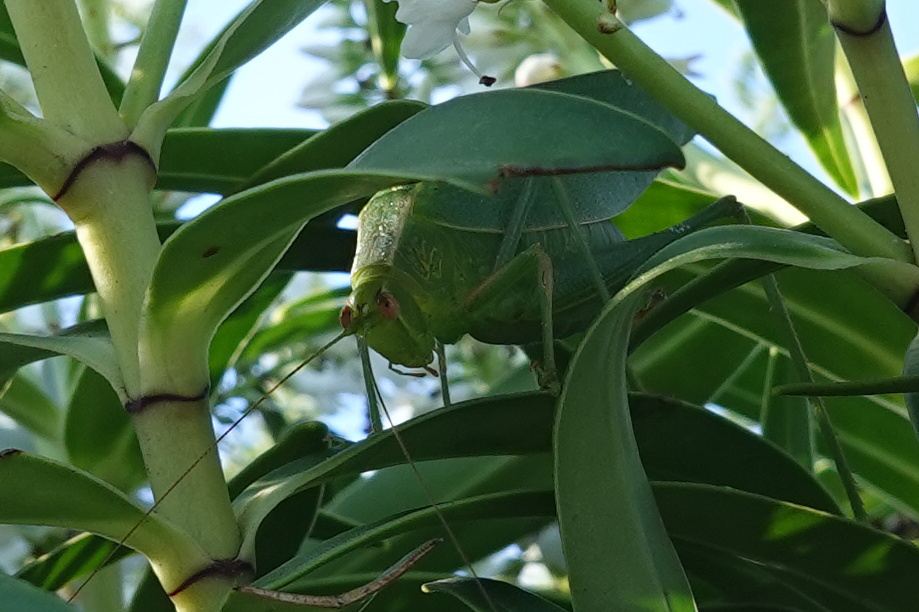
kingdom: Animalia
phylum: Arthropoda
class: Insecta
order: Orthoptera
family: Tettigoniidae
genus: Caedicia
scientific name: Caedicia simplex
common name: Common garden katydid
